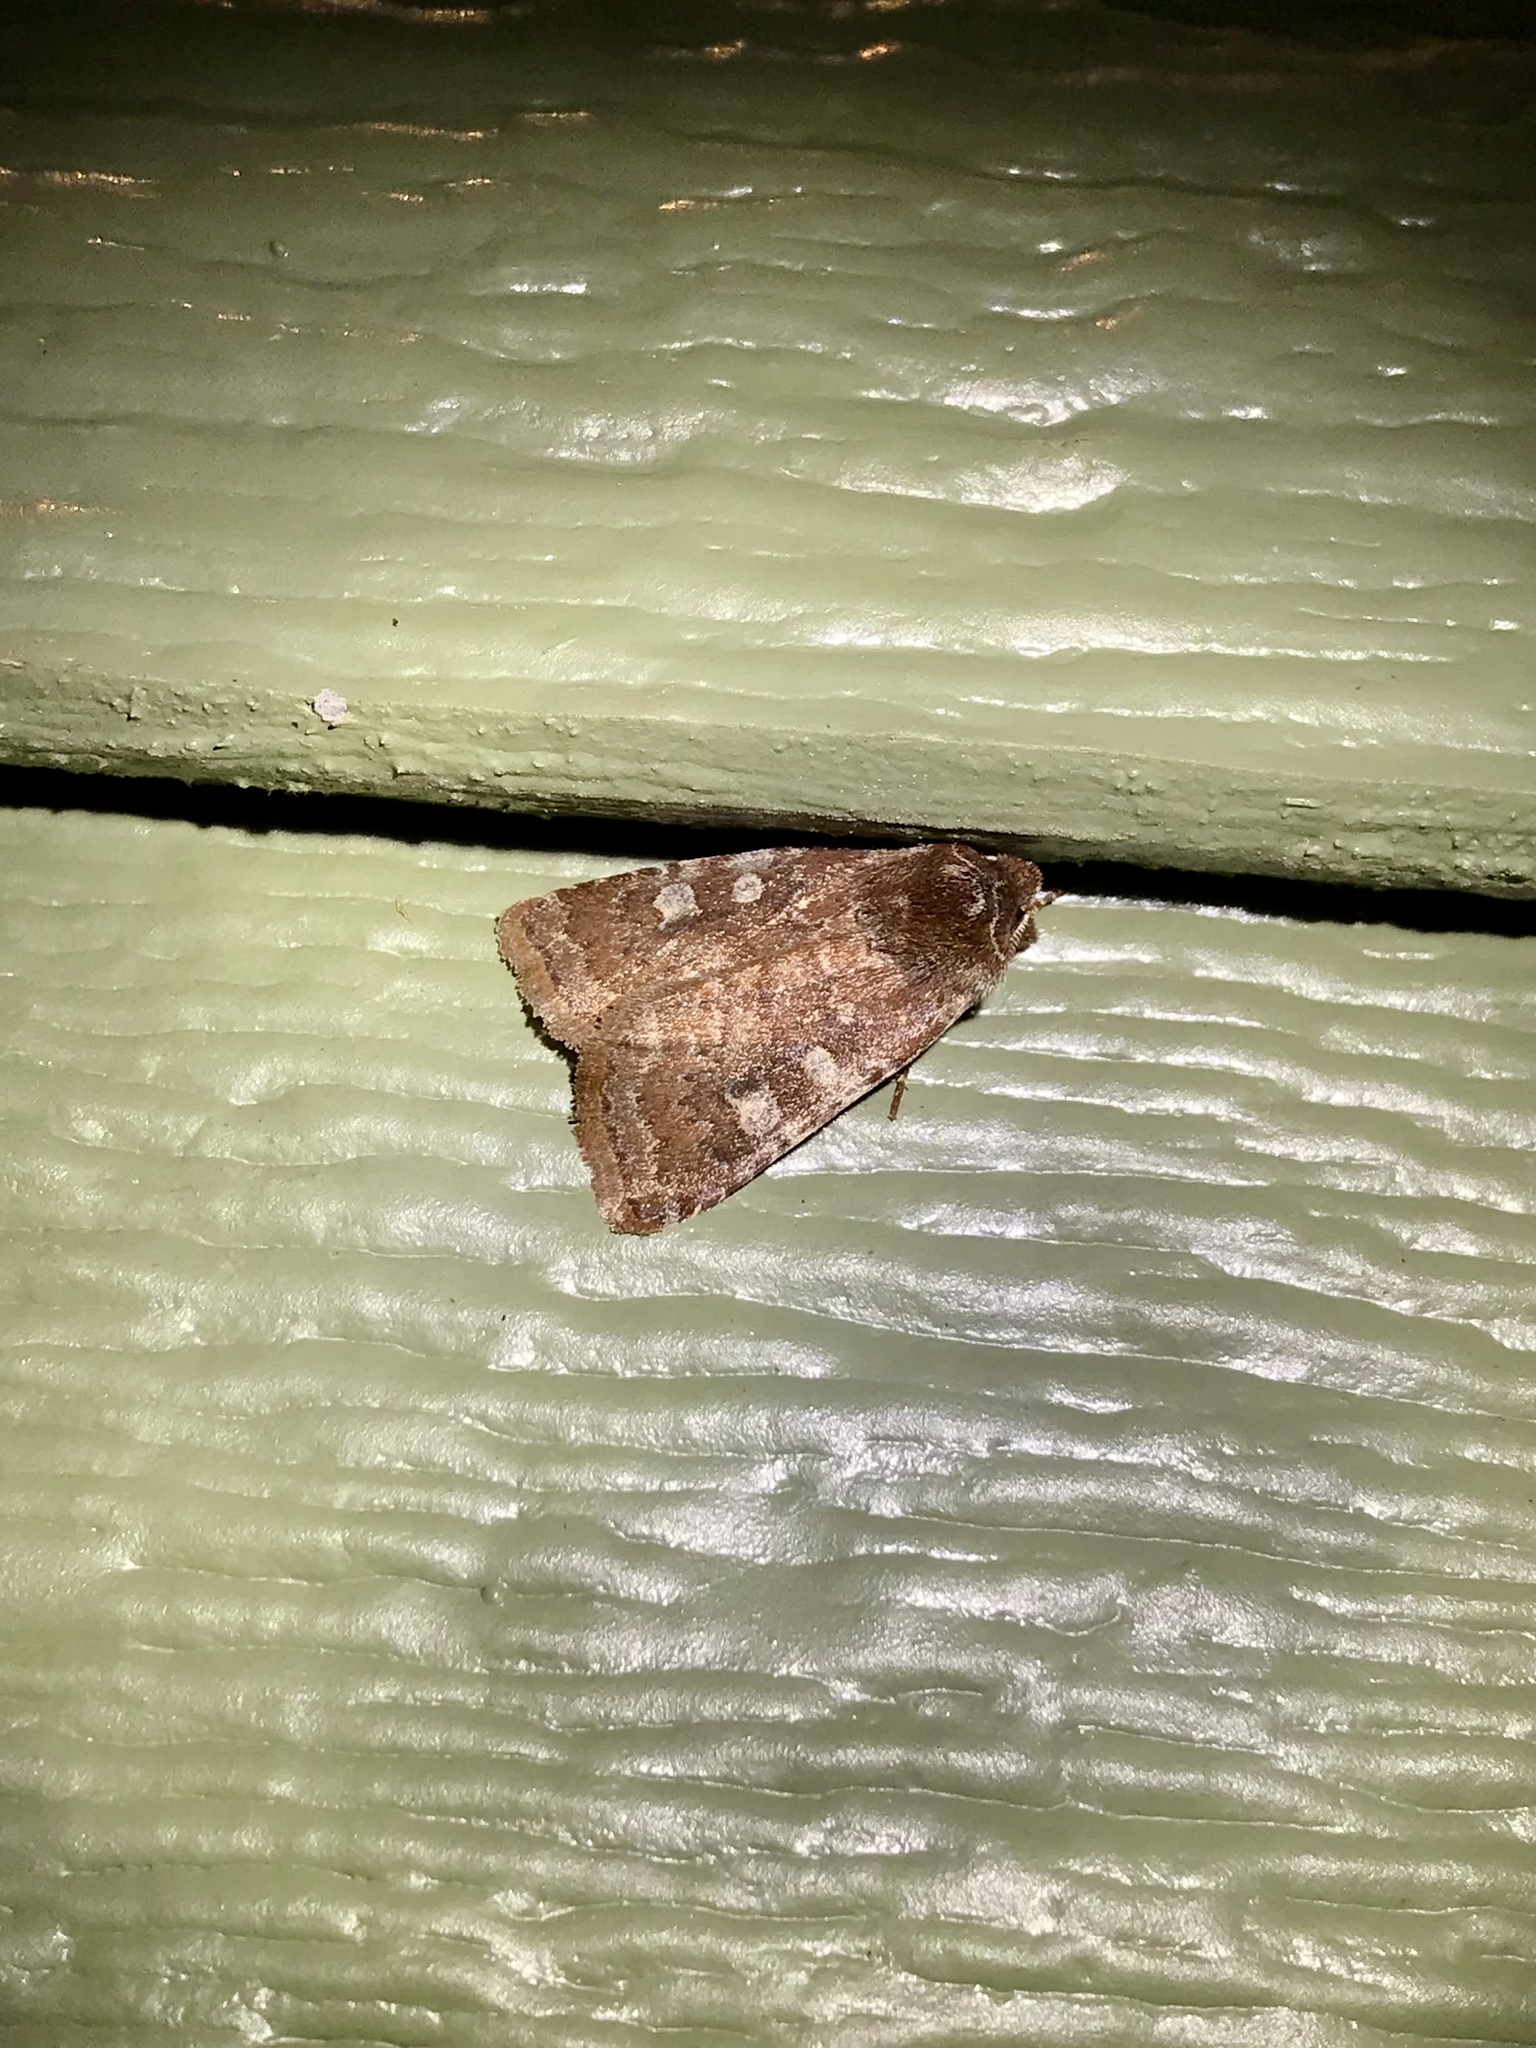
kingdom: Animalia
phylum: Arthropoda
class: Insecta
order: Lepidoptera
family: Noctuidae
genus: Cerastis
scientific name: Cerastis tenebrifera
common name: Reddish speckled dart
